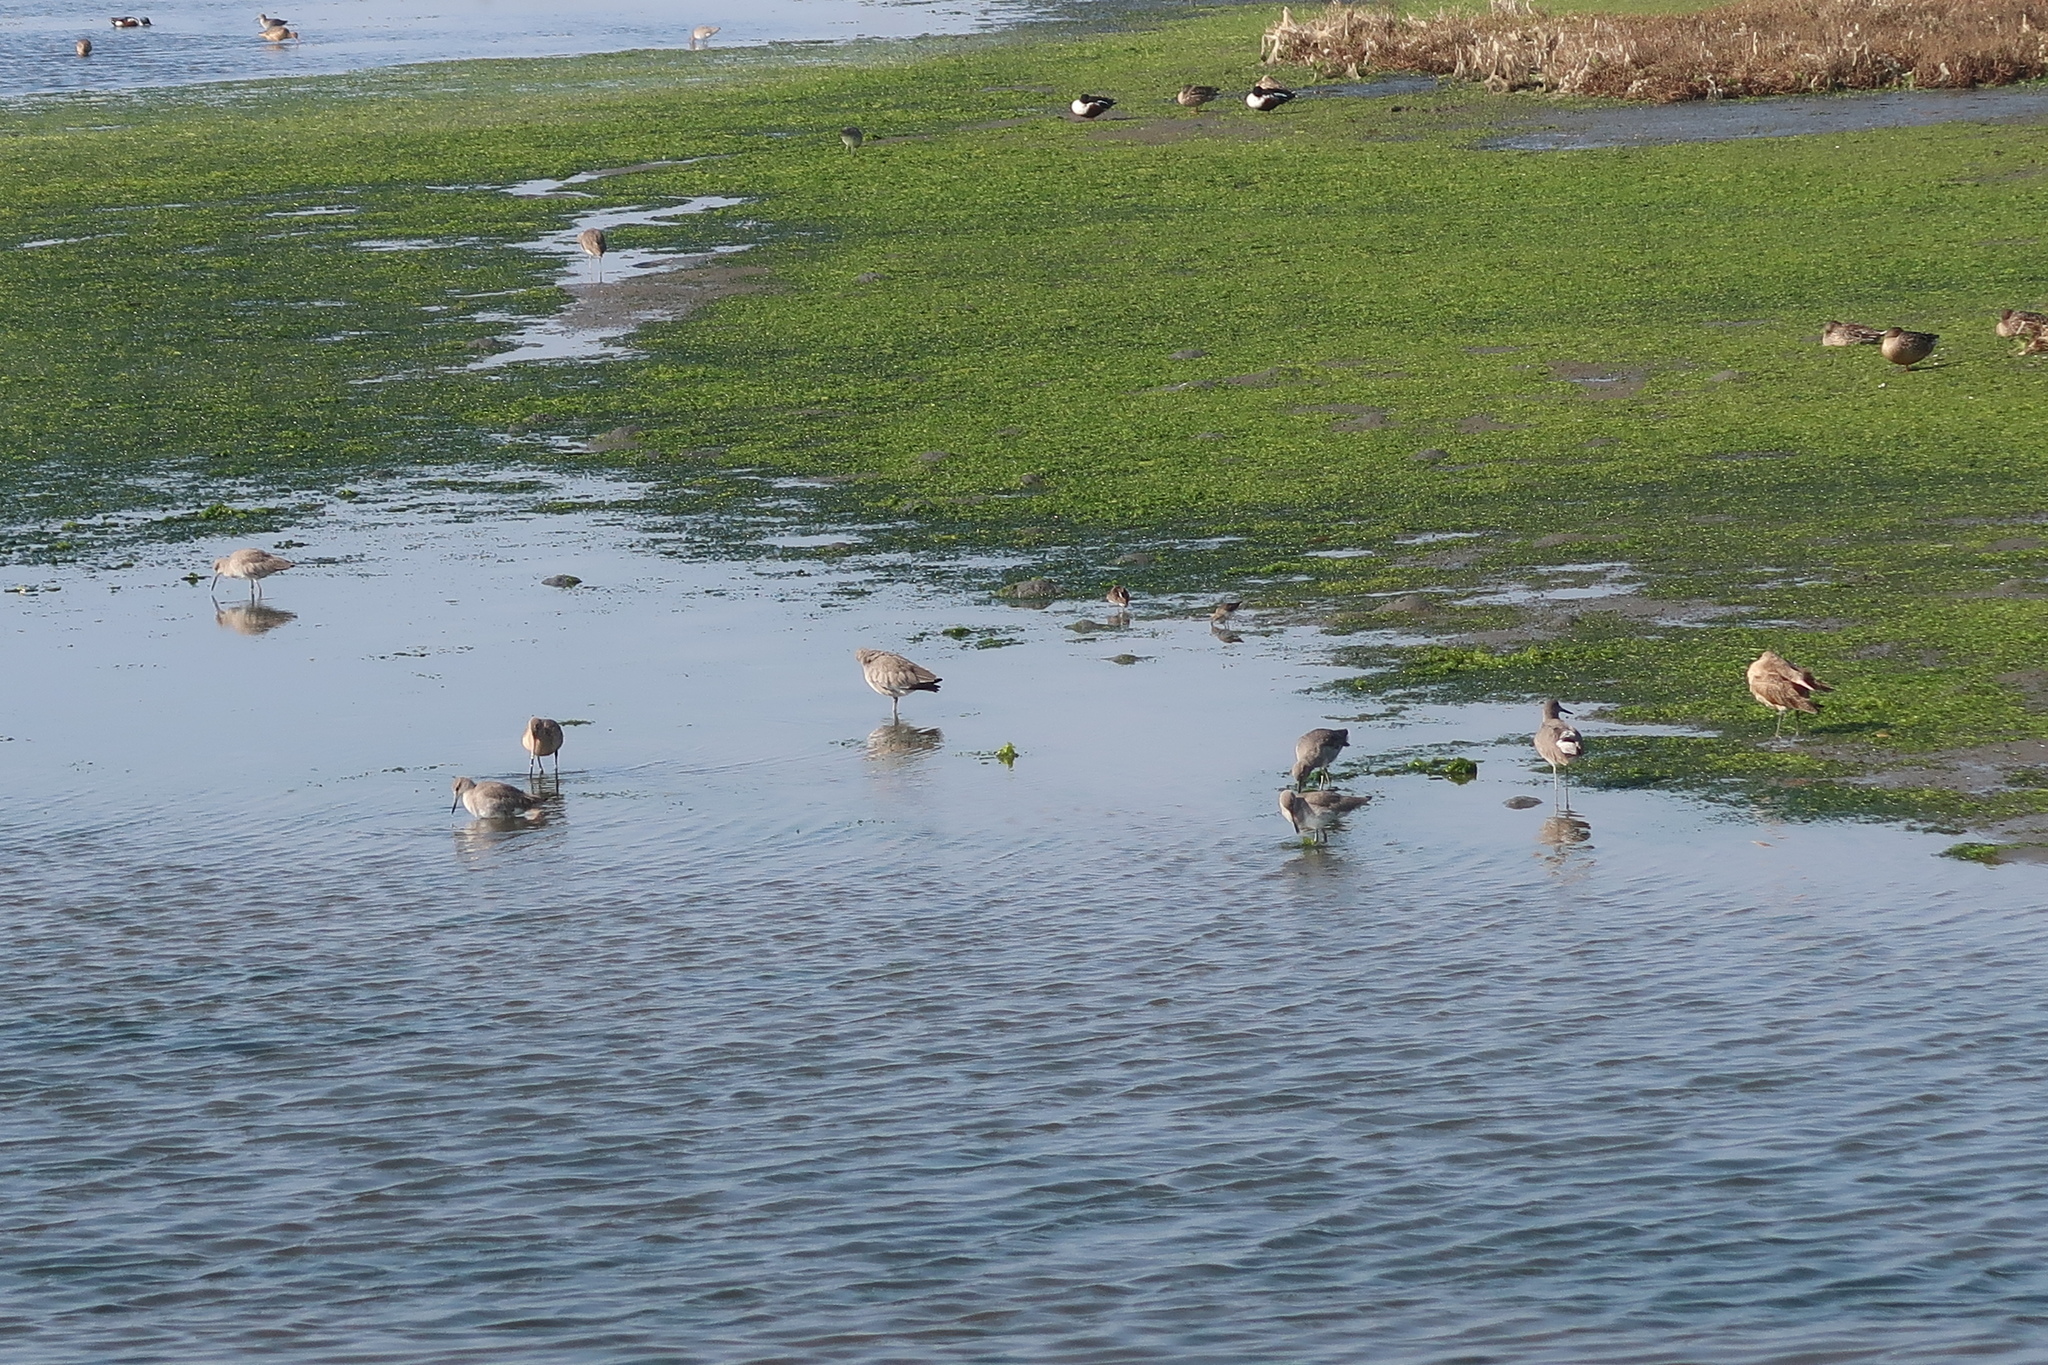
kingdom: Animalia
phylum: Chordata
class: Aves
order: Charadriiformes
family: Scolopacidae
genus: Tringa
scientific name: Tringa semipalmata
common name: Willet
